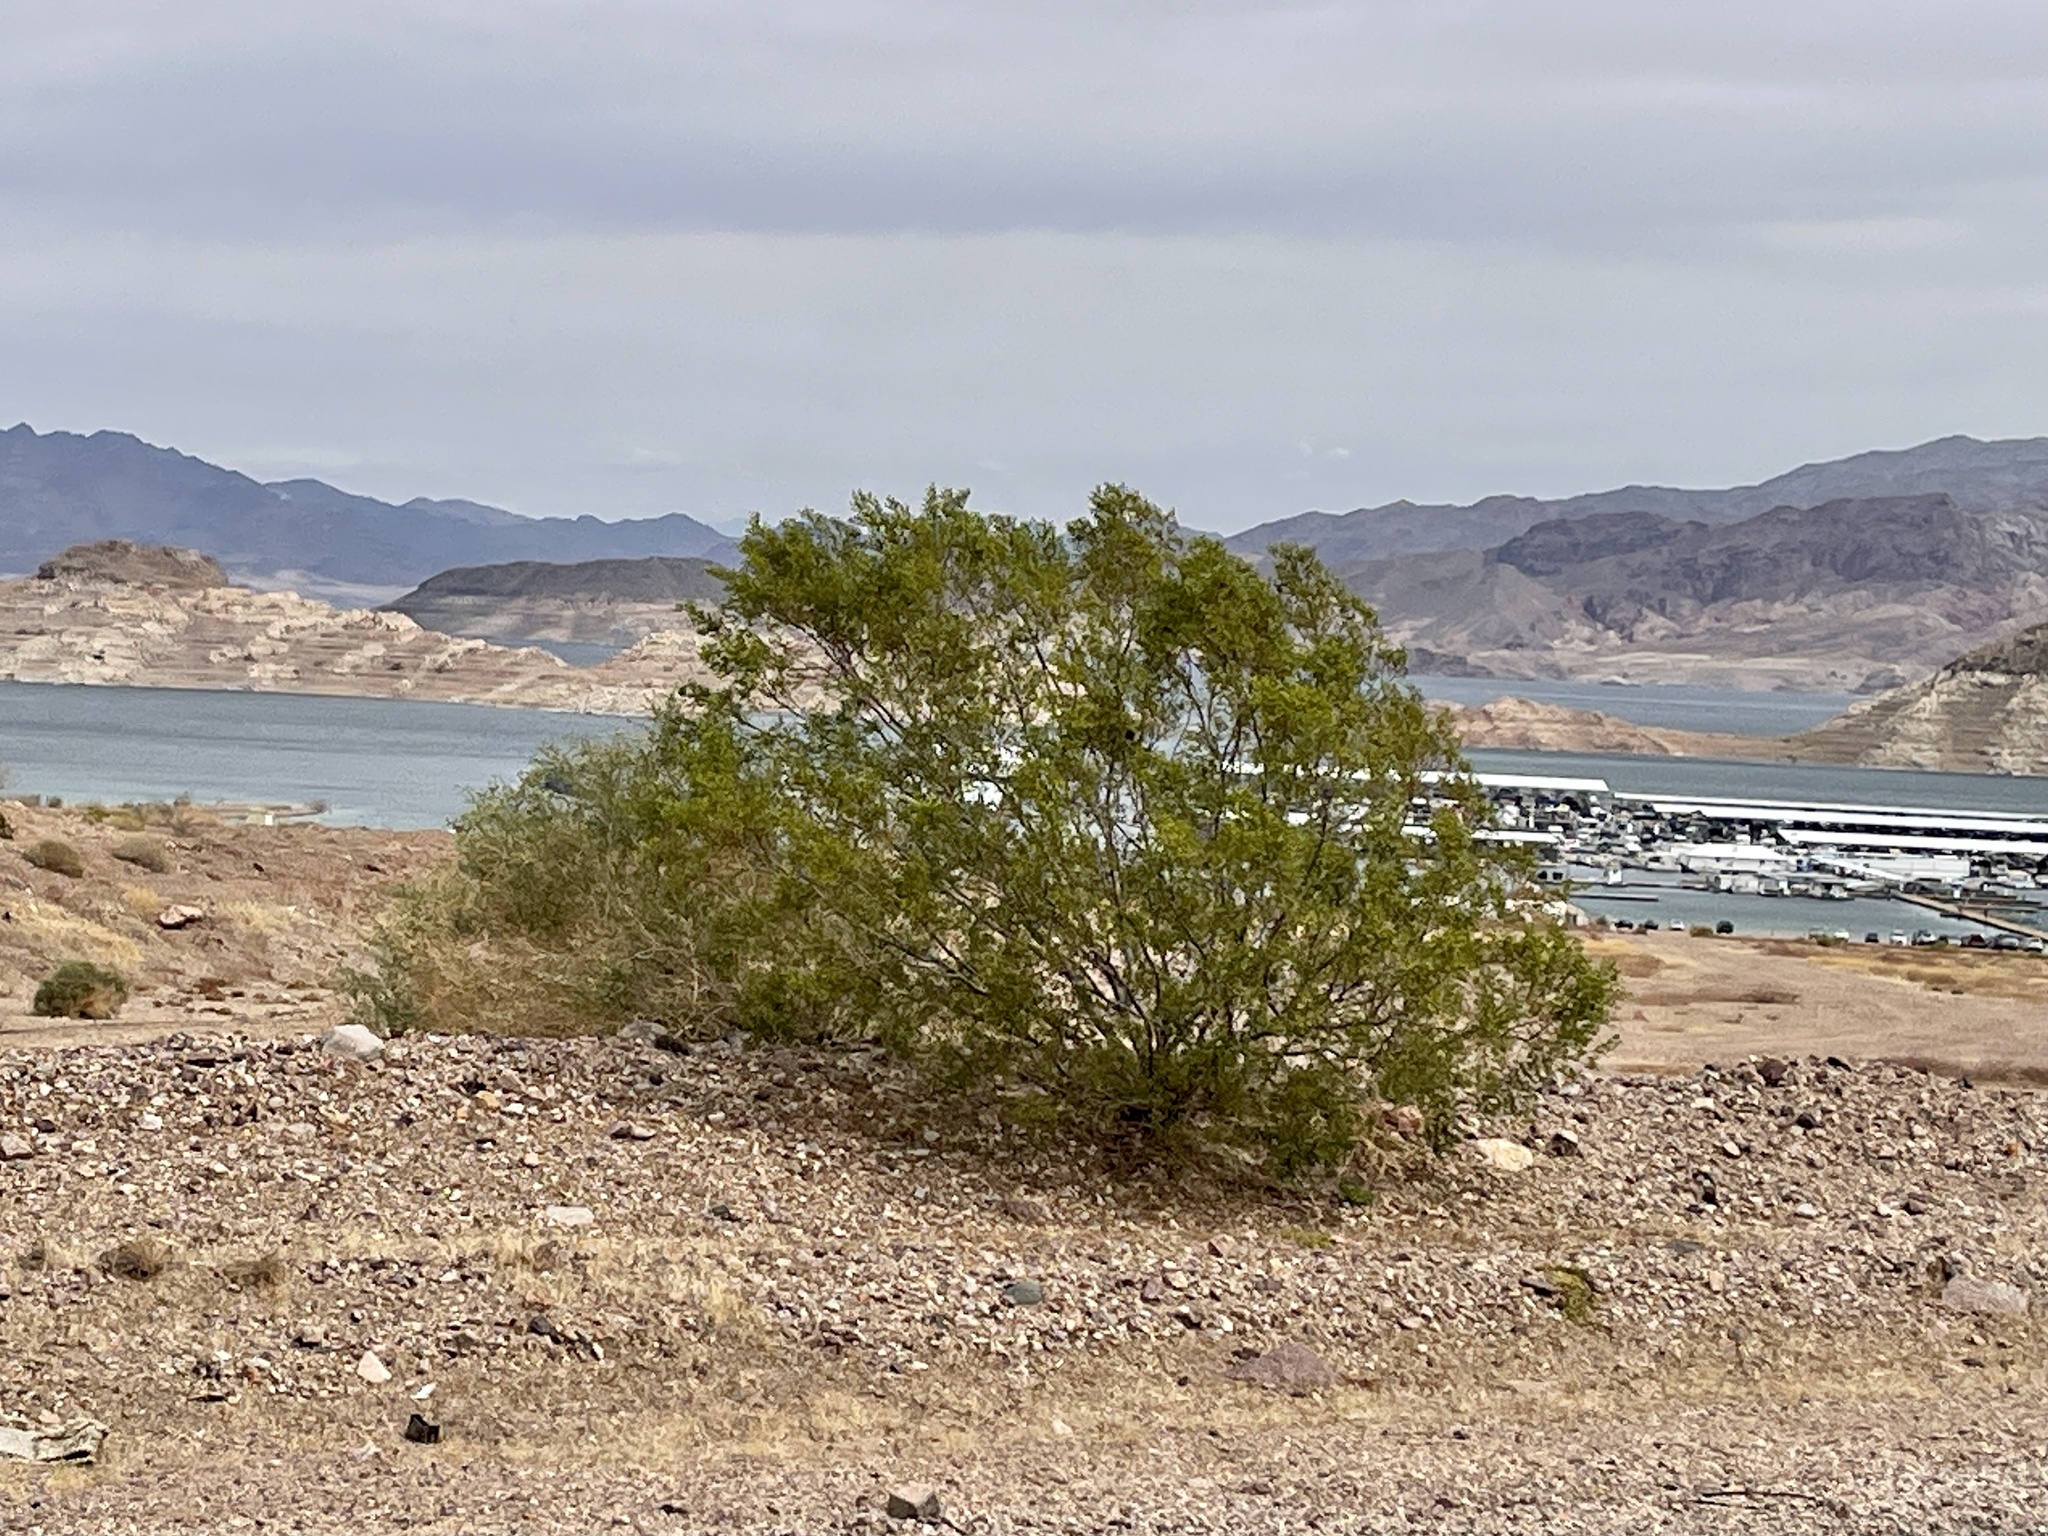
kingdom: Plantae
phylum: Tracheophyta
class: Magnoliopsida
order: Zygophyllales
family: Zygophyllaceae
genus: Larrea
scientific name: Larrea tridentata
